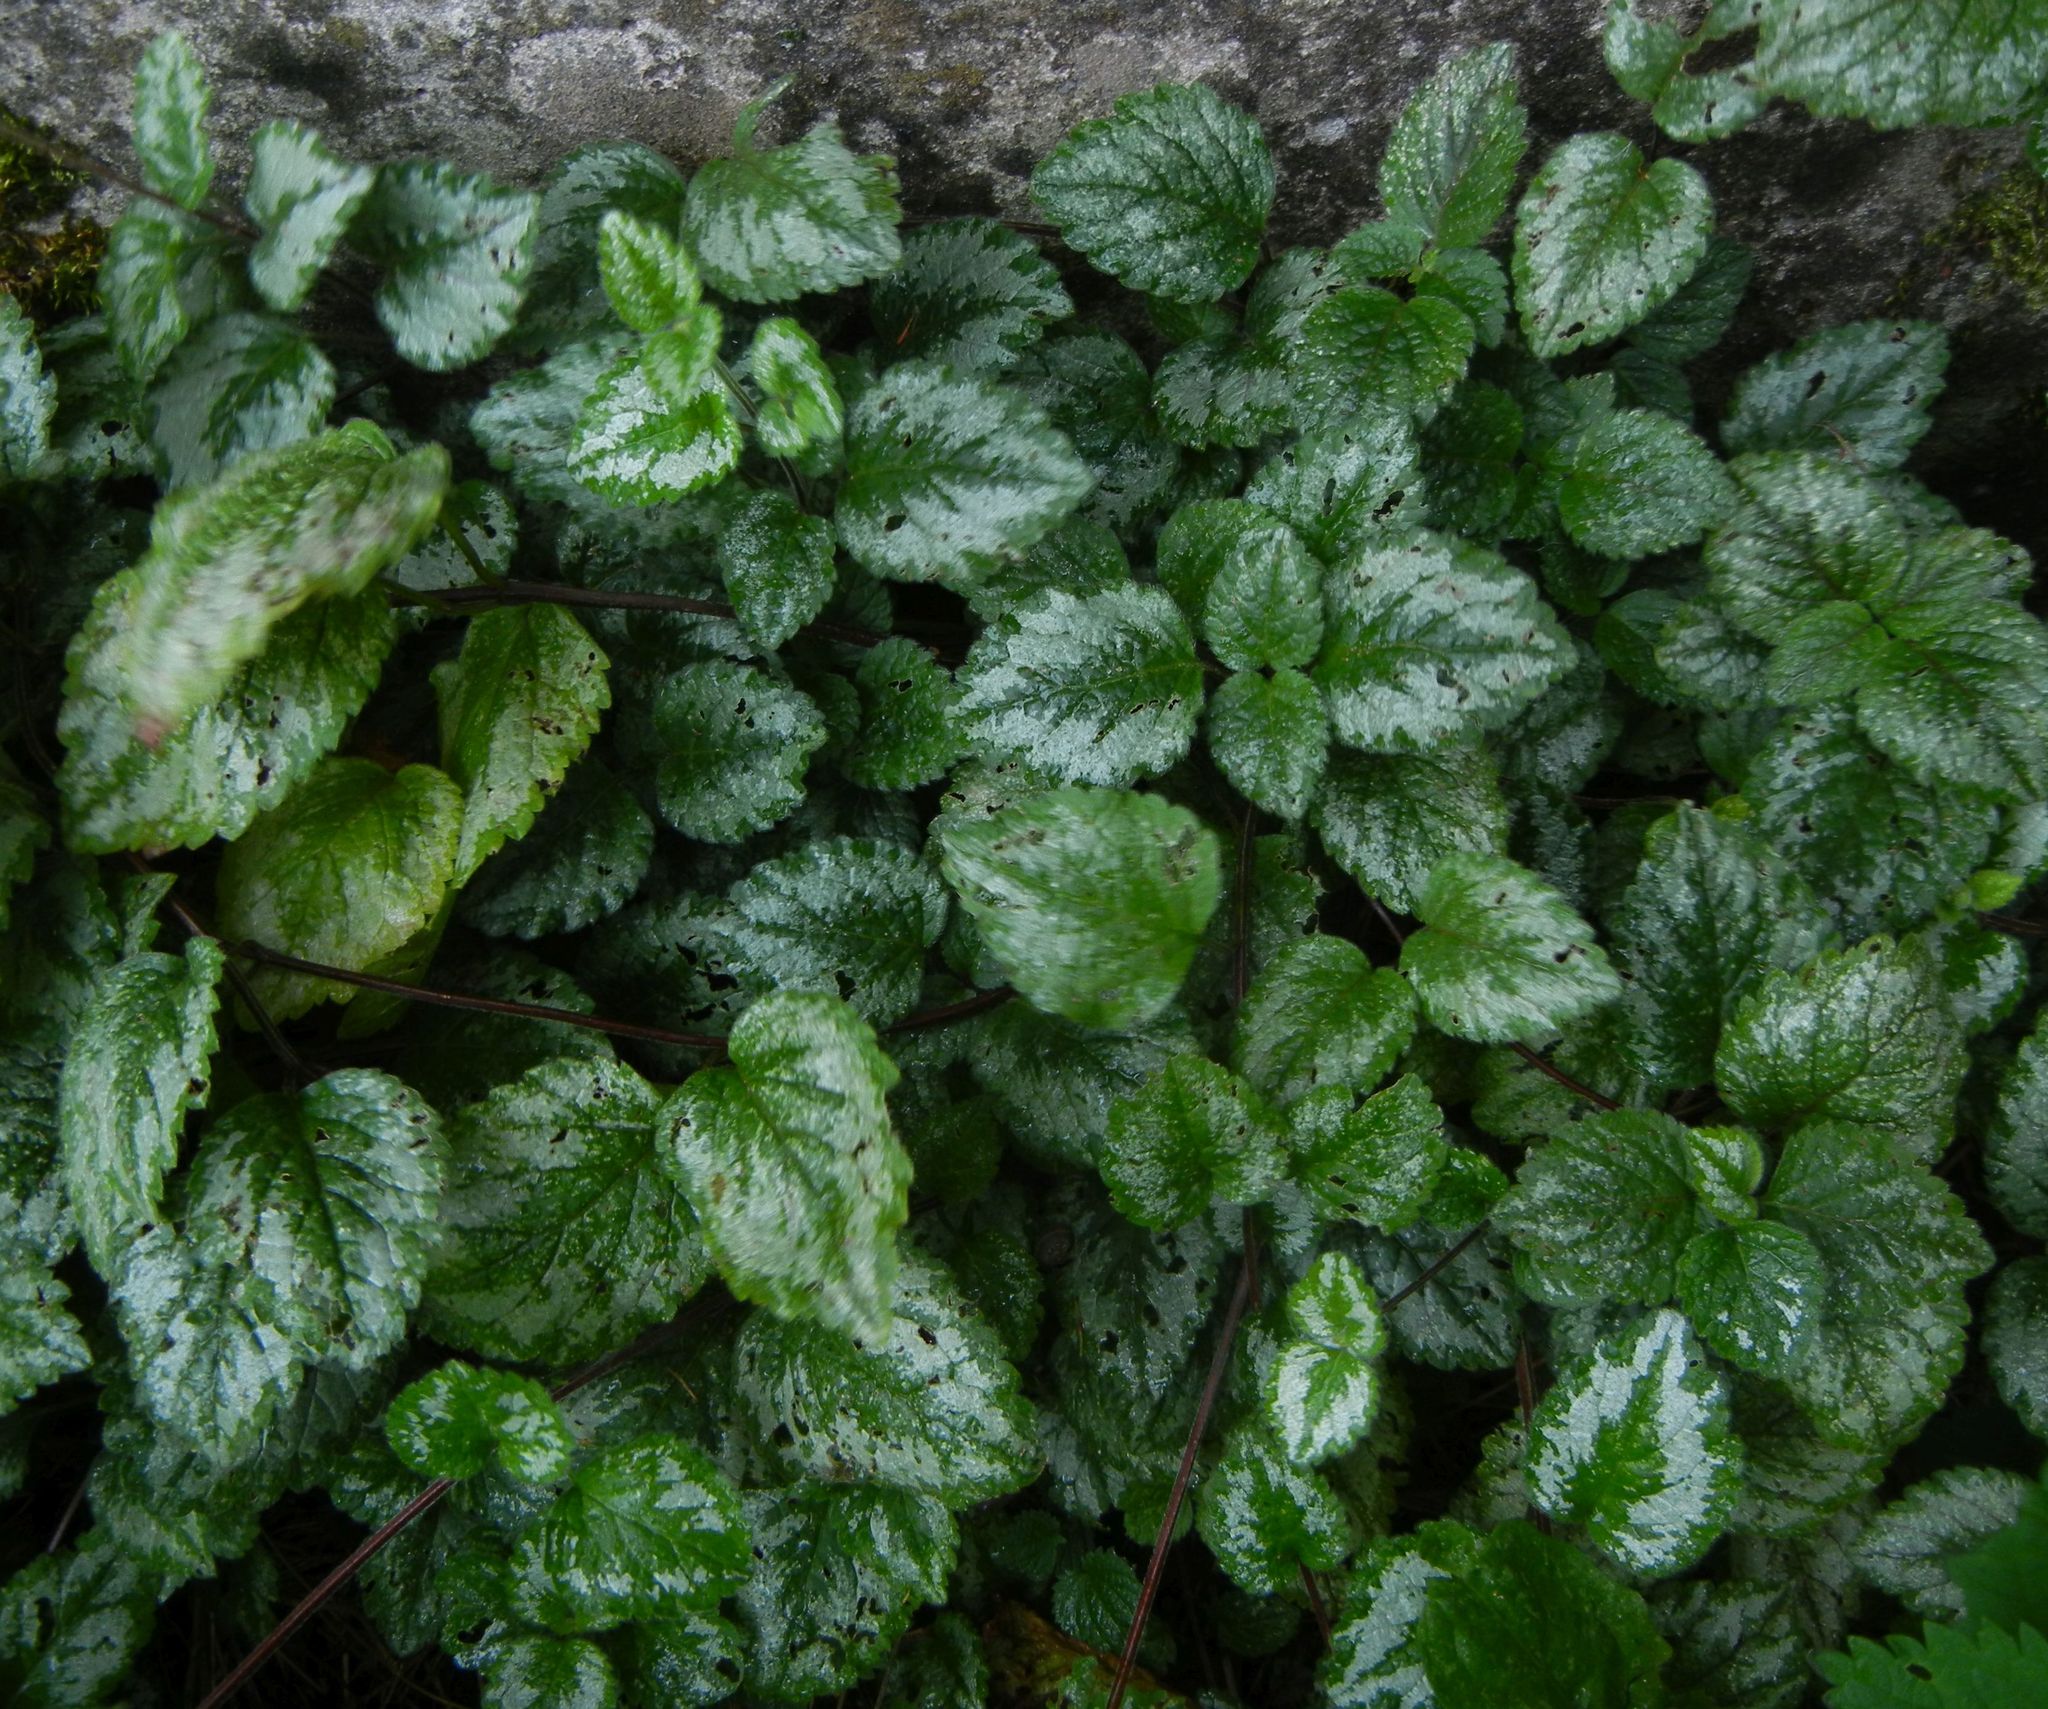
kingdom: Plantae
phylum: Tracheophyta
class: Magnoliopsida
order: Lamiales
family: Lamiaceae
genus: Lamium
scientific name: Lamium galeobdolon
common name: Yellow archangel
